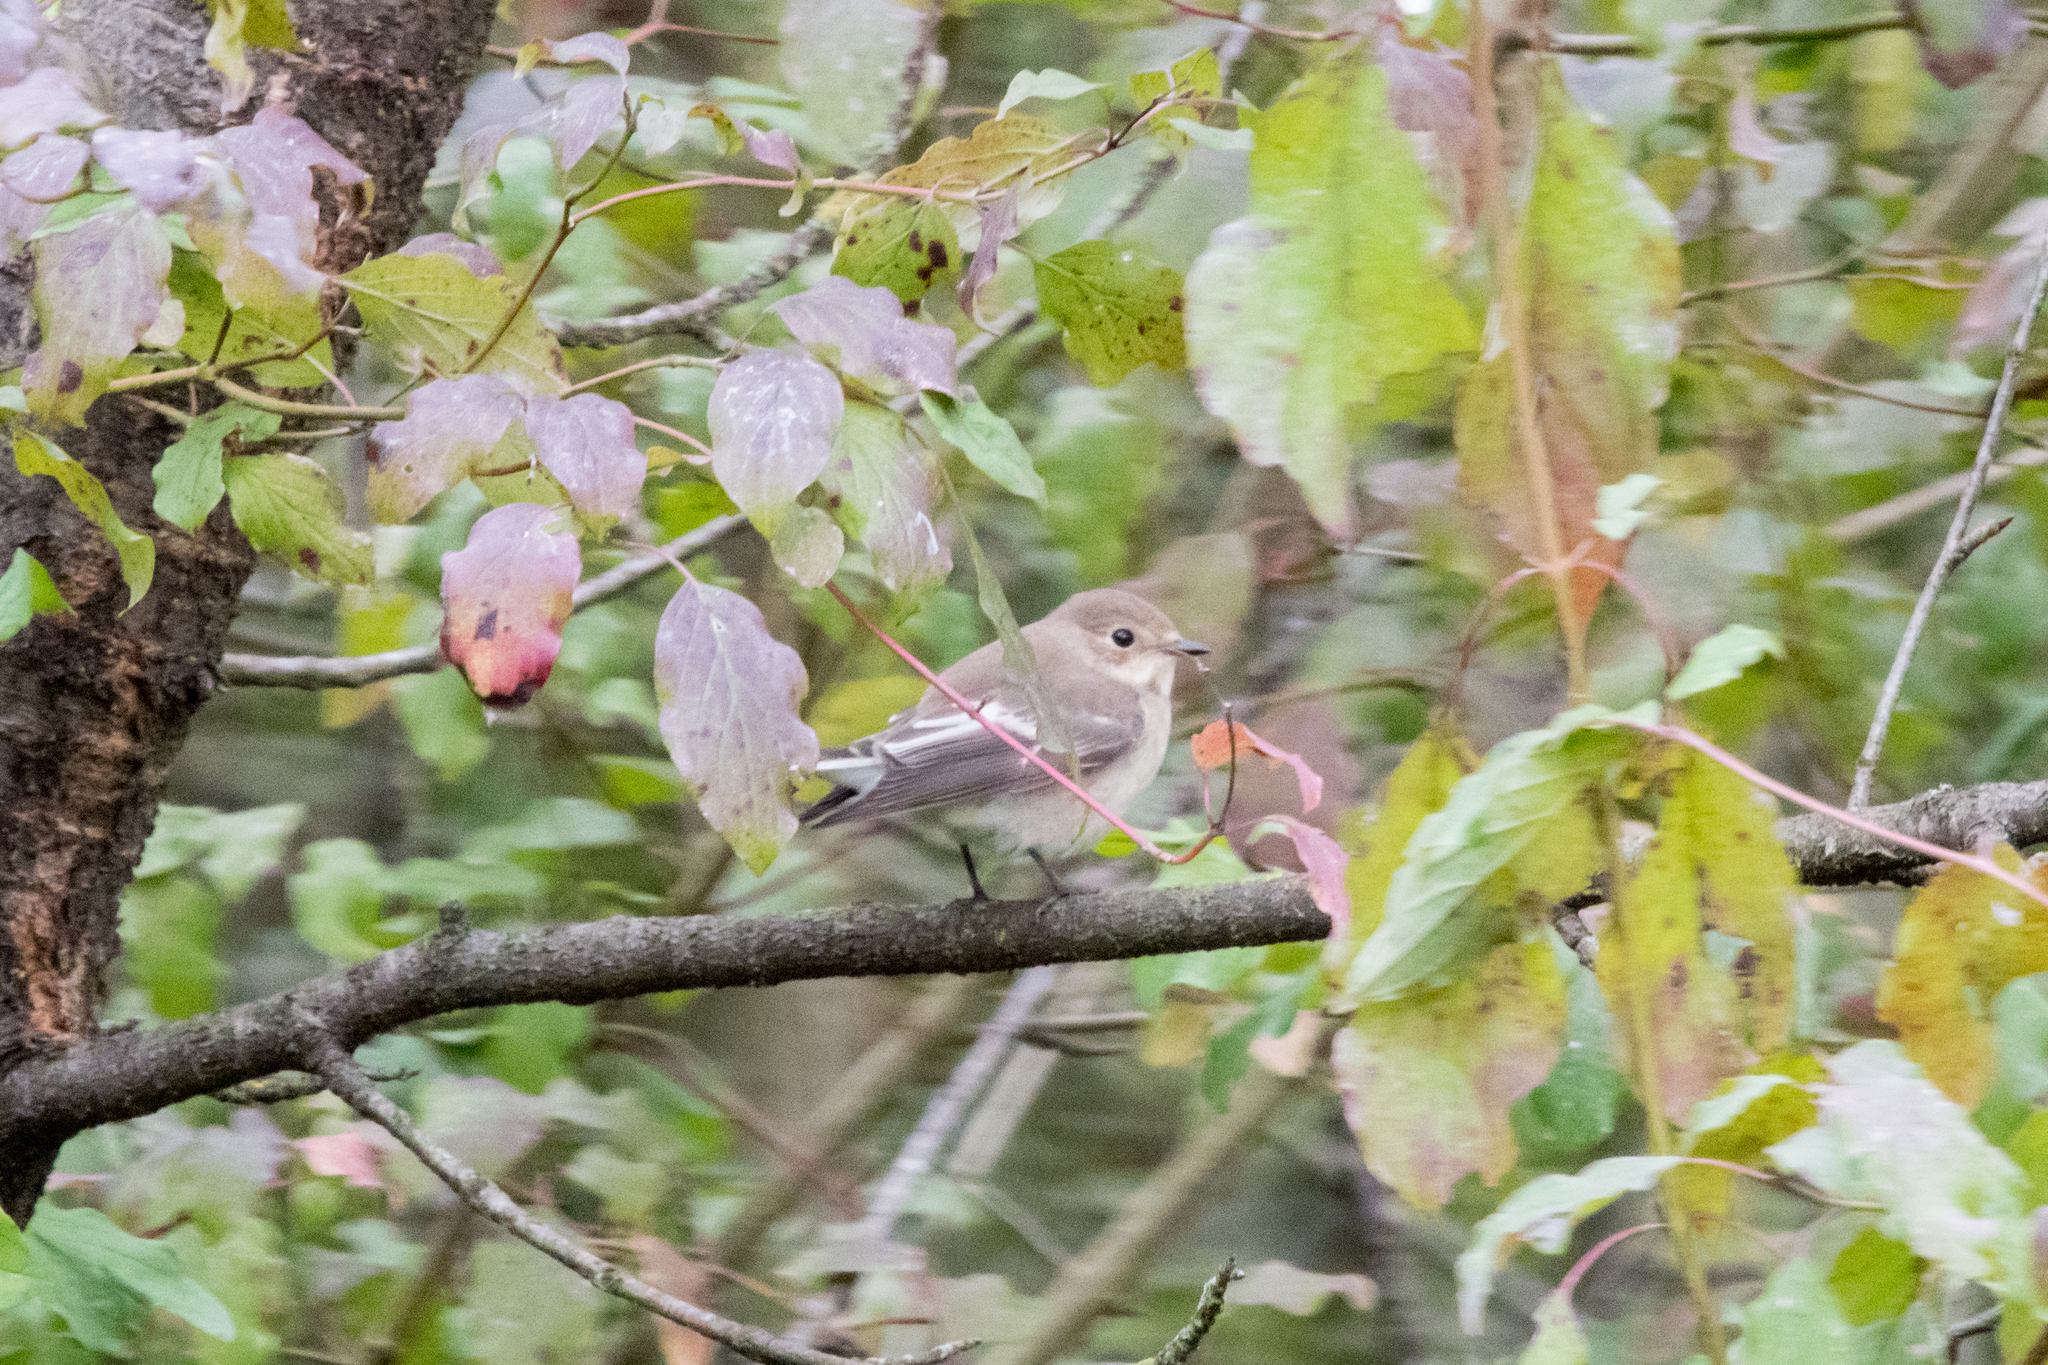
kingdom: Animalia
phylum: Chordata
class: Aves
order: Passeriformes
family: Muscicapidae
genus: Ficedula
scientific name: Ficedula hypoleuca
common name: European pied flycatcher
